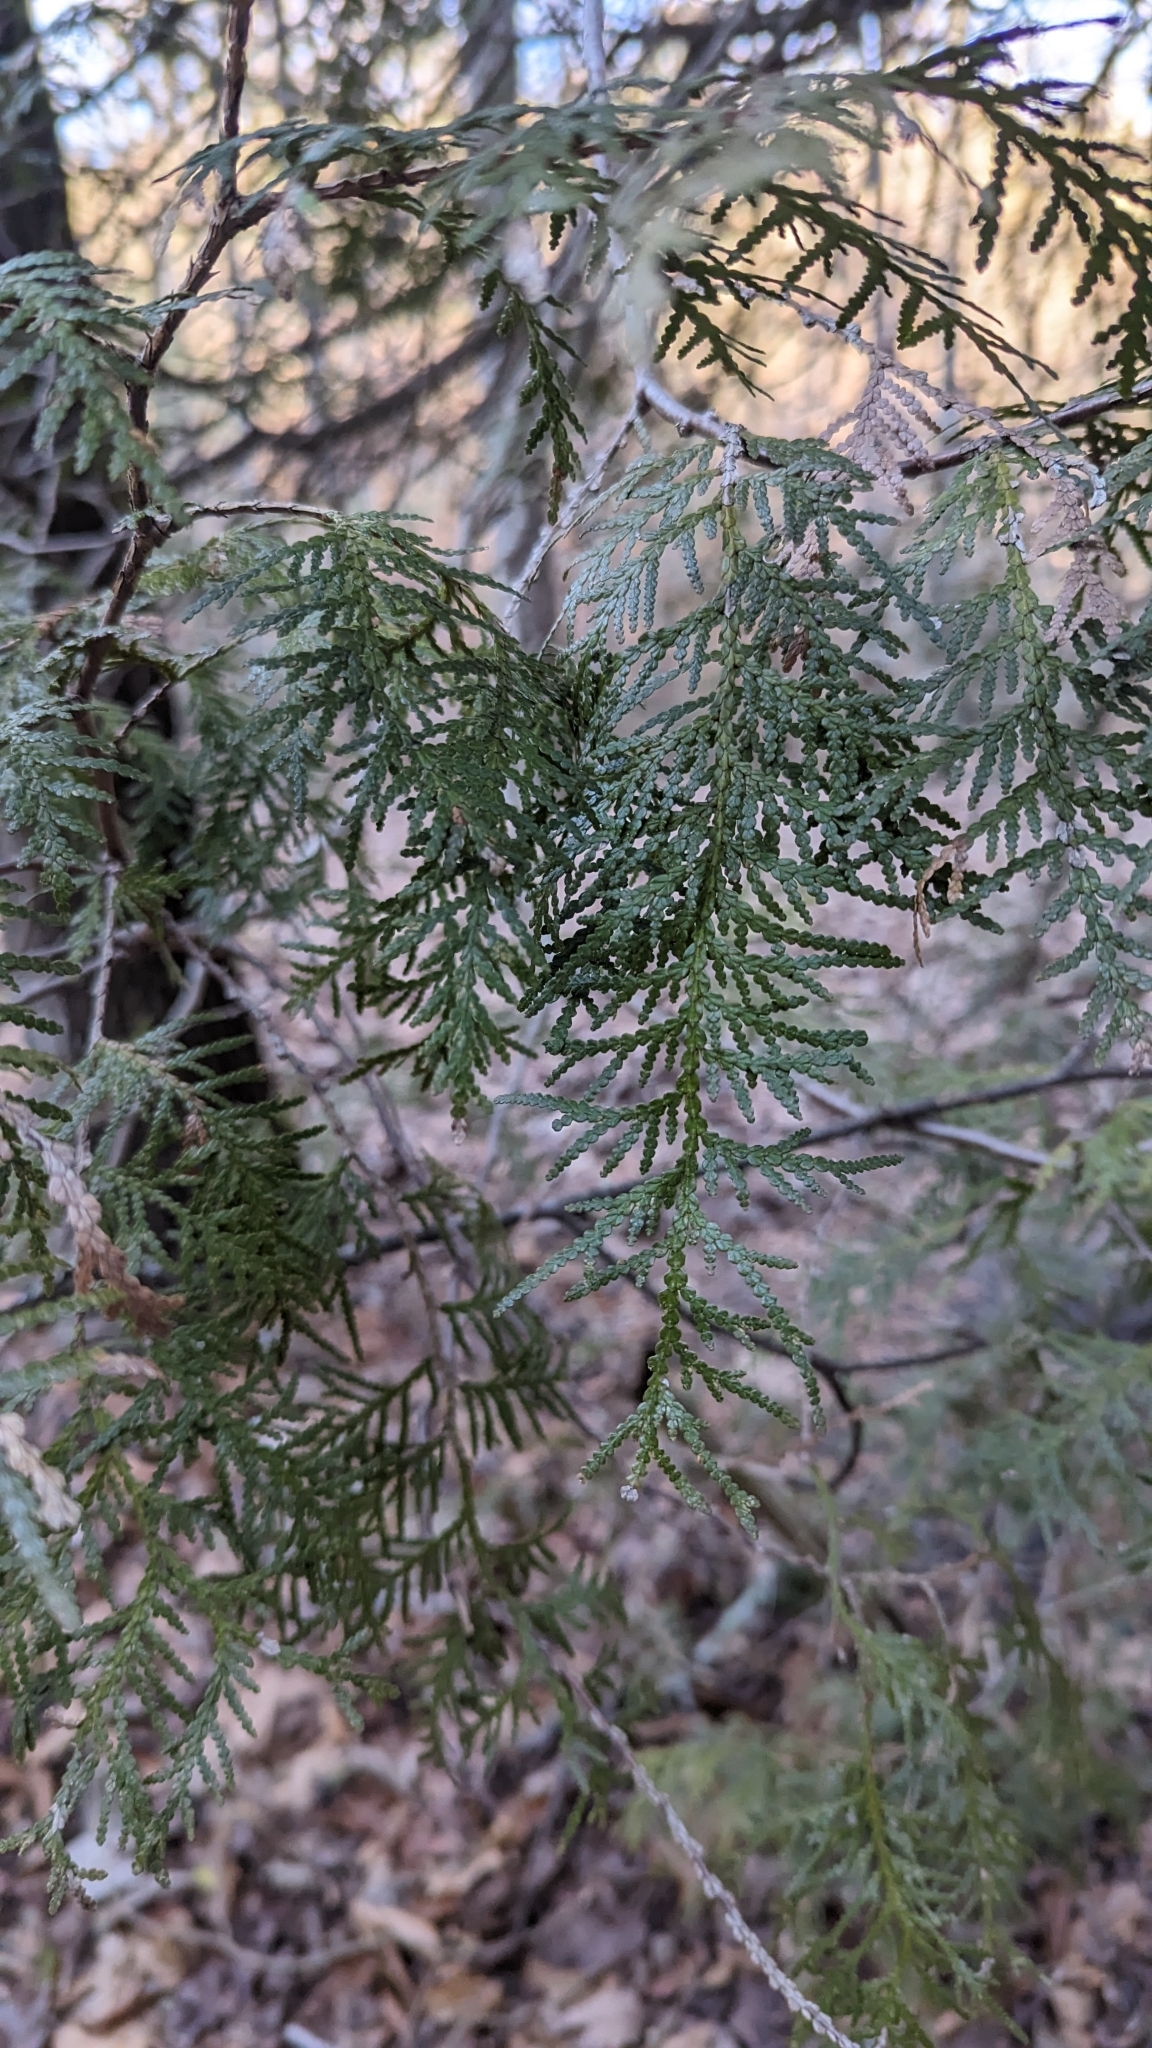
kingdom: Plantae
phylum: Tracheophyta
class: Pinopsida
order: Pinales
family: Cupressaceae
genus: Thuja
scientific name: Thuja occidentalis
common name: Northern white-cedar
